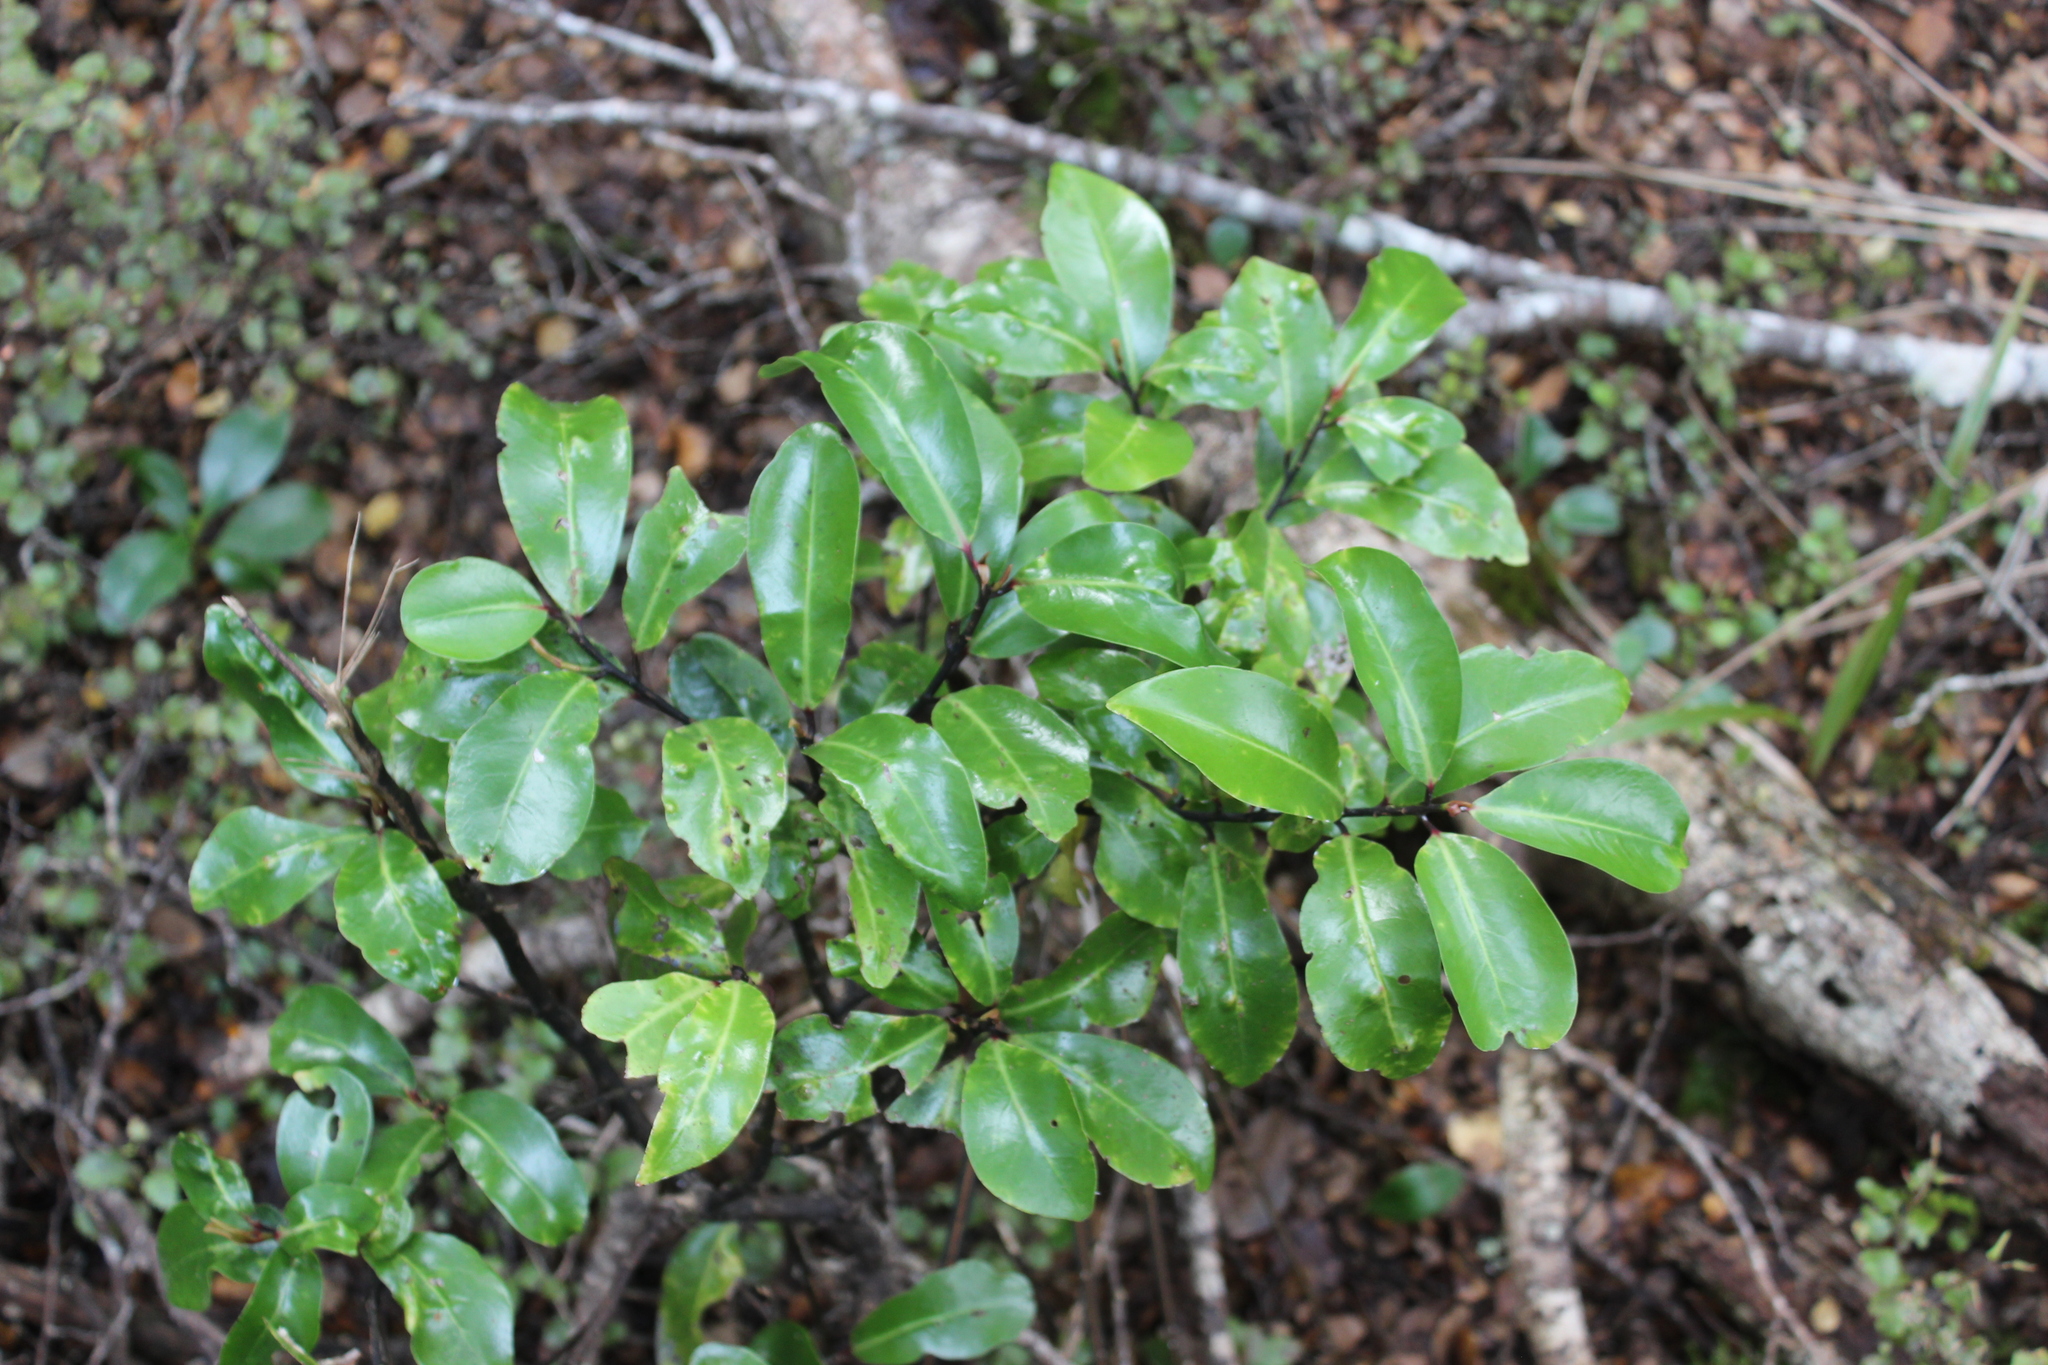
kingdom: Plantae
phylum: Tracheophyta
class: Magnoliopsida
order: Canellales
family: Winteraceae
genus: Pseudowintera
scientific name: Pseudowintera axillaris
